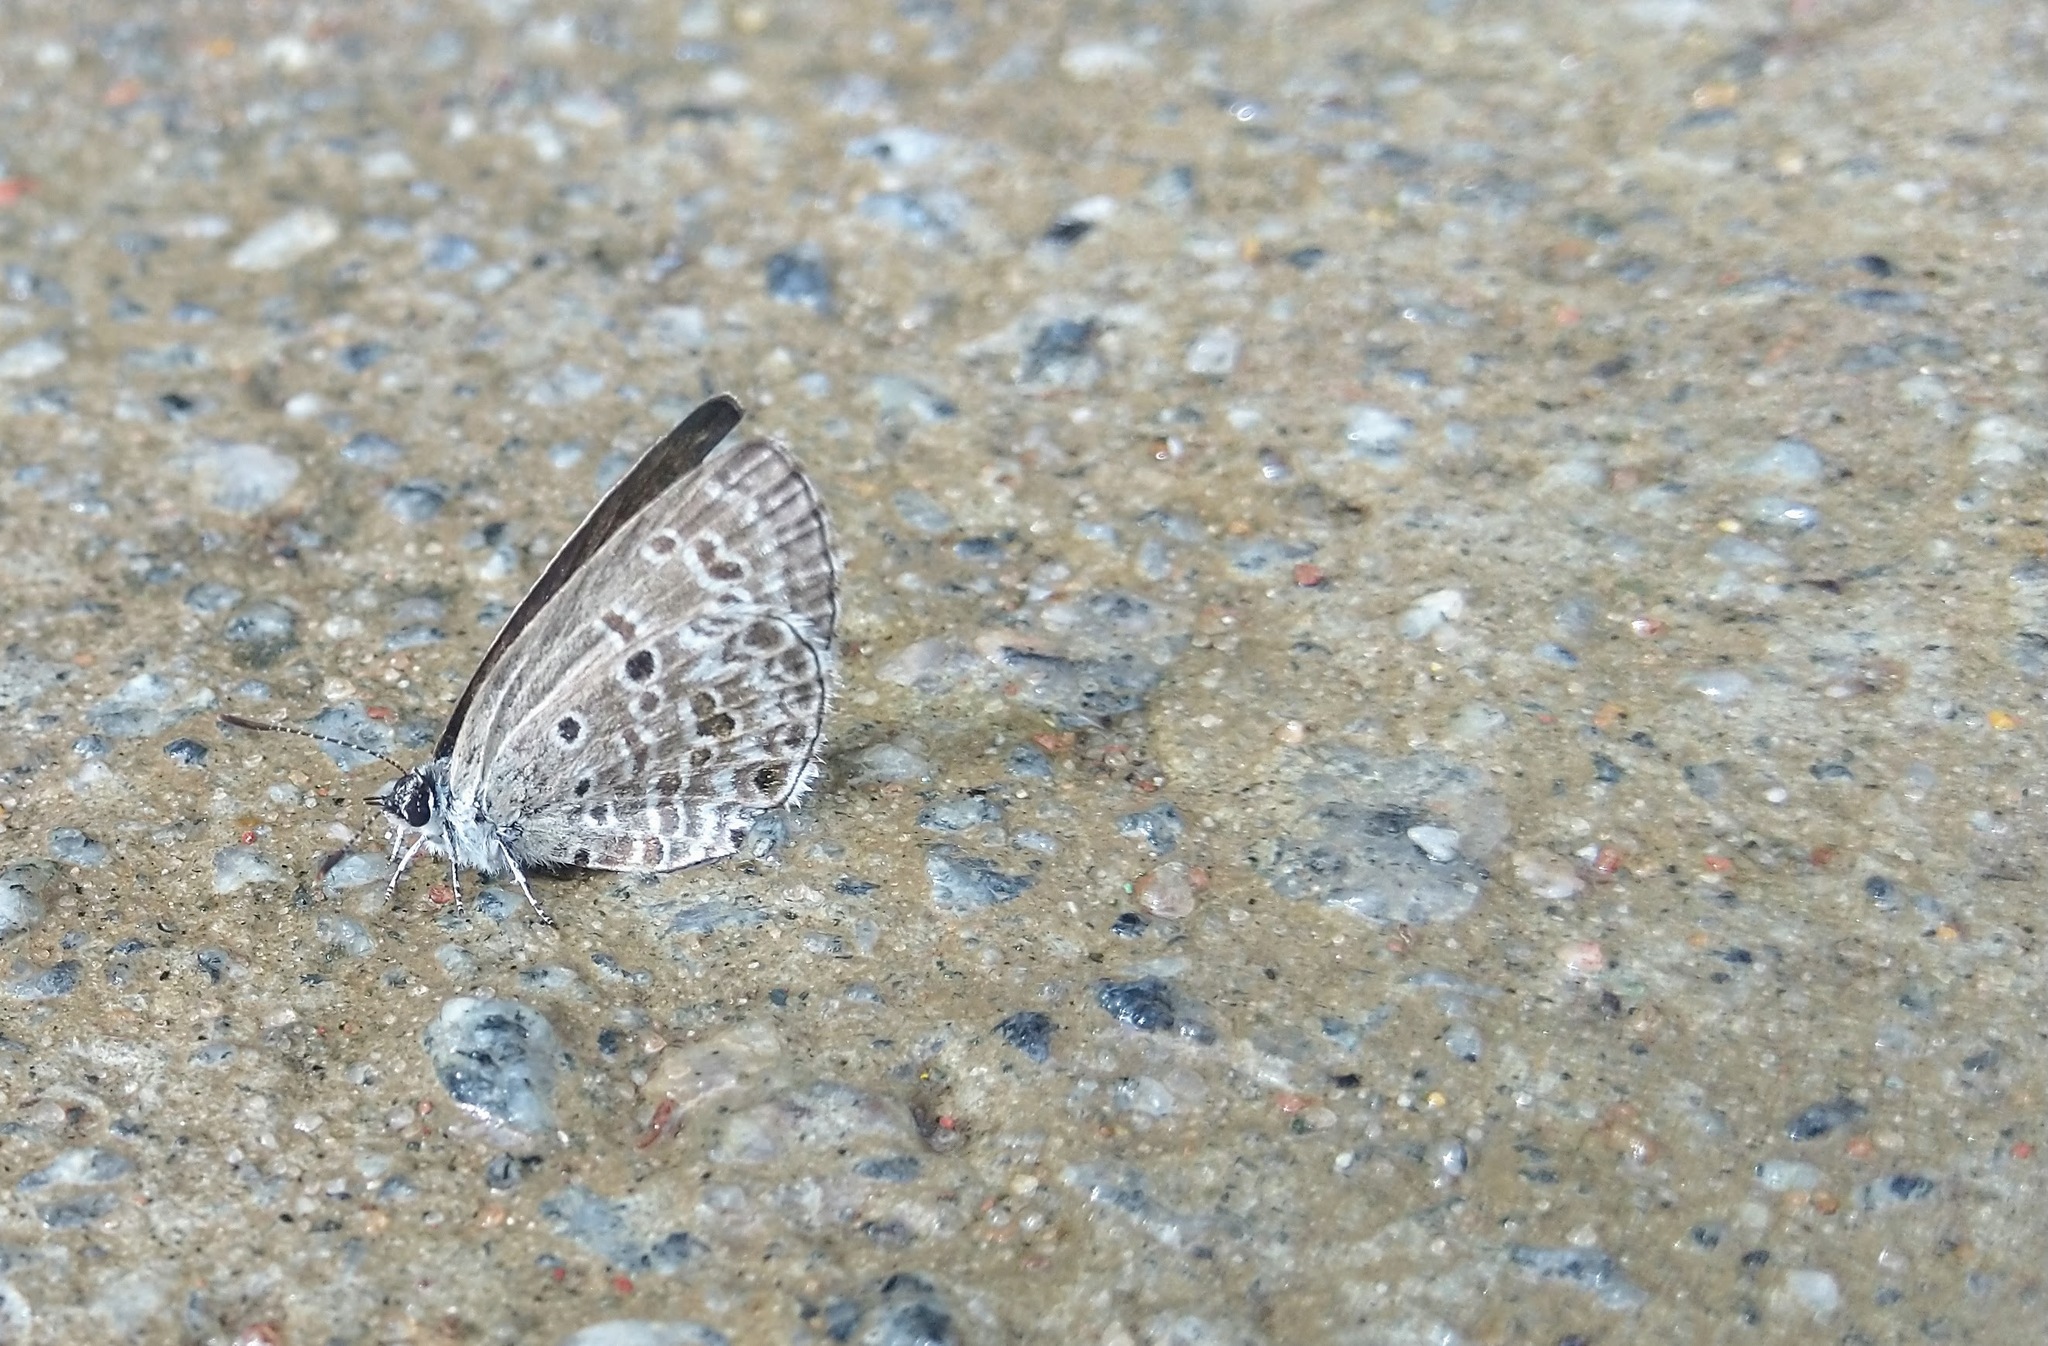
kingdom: Animalia
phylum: Arthropoda
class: Insecta
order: Lepidoptera
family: Lycaenidae
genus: Chilades
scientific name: Chilades laius
